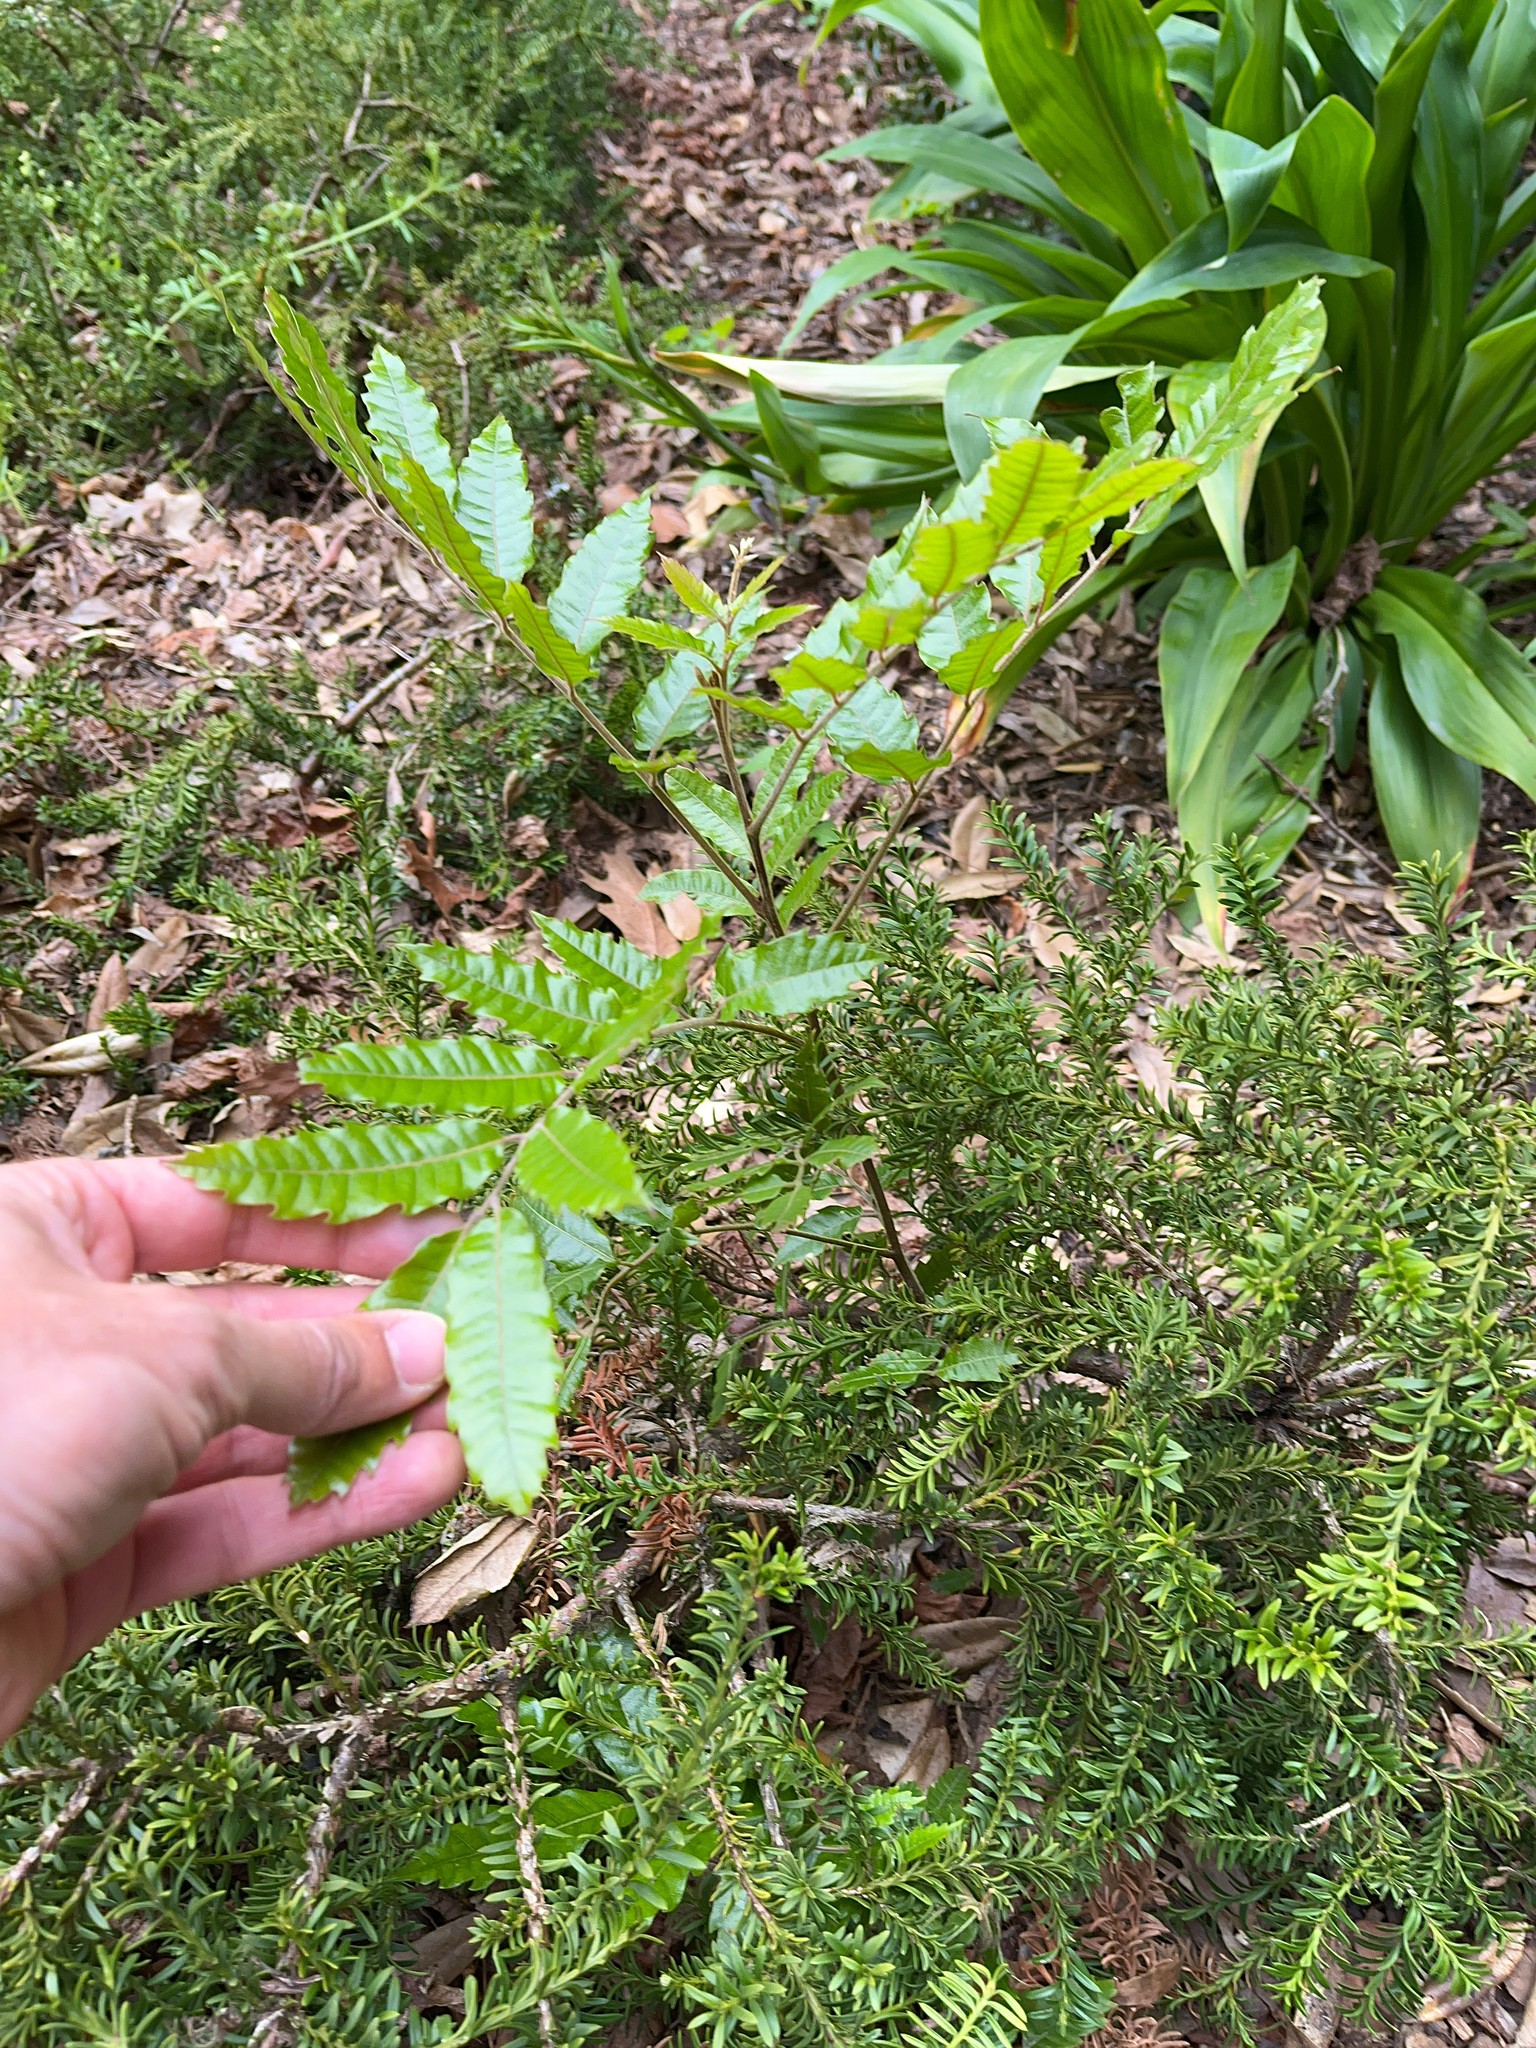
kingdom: Plantae
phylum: Tracheophyta
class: Magnoliopsida
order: Sapindales
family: Sapindaceae
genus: Alectryon
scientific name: Alectryon excelsus
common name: Three kings titoki
